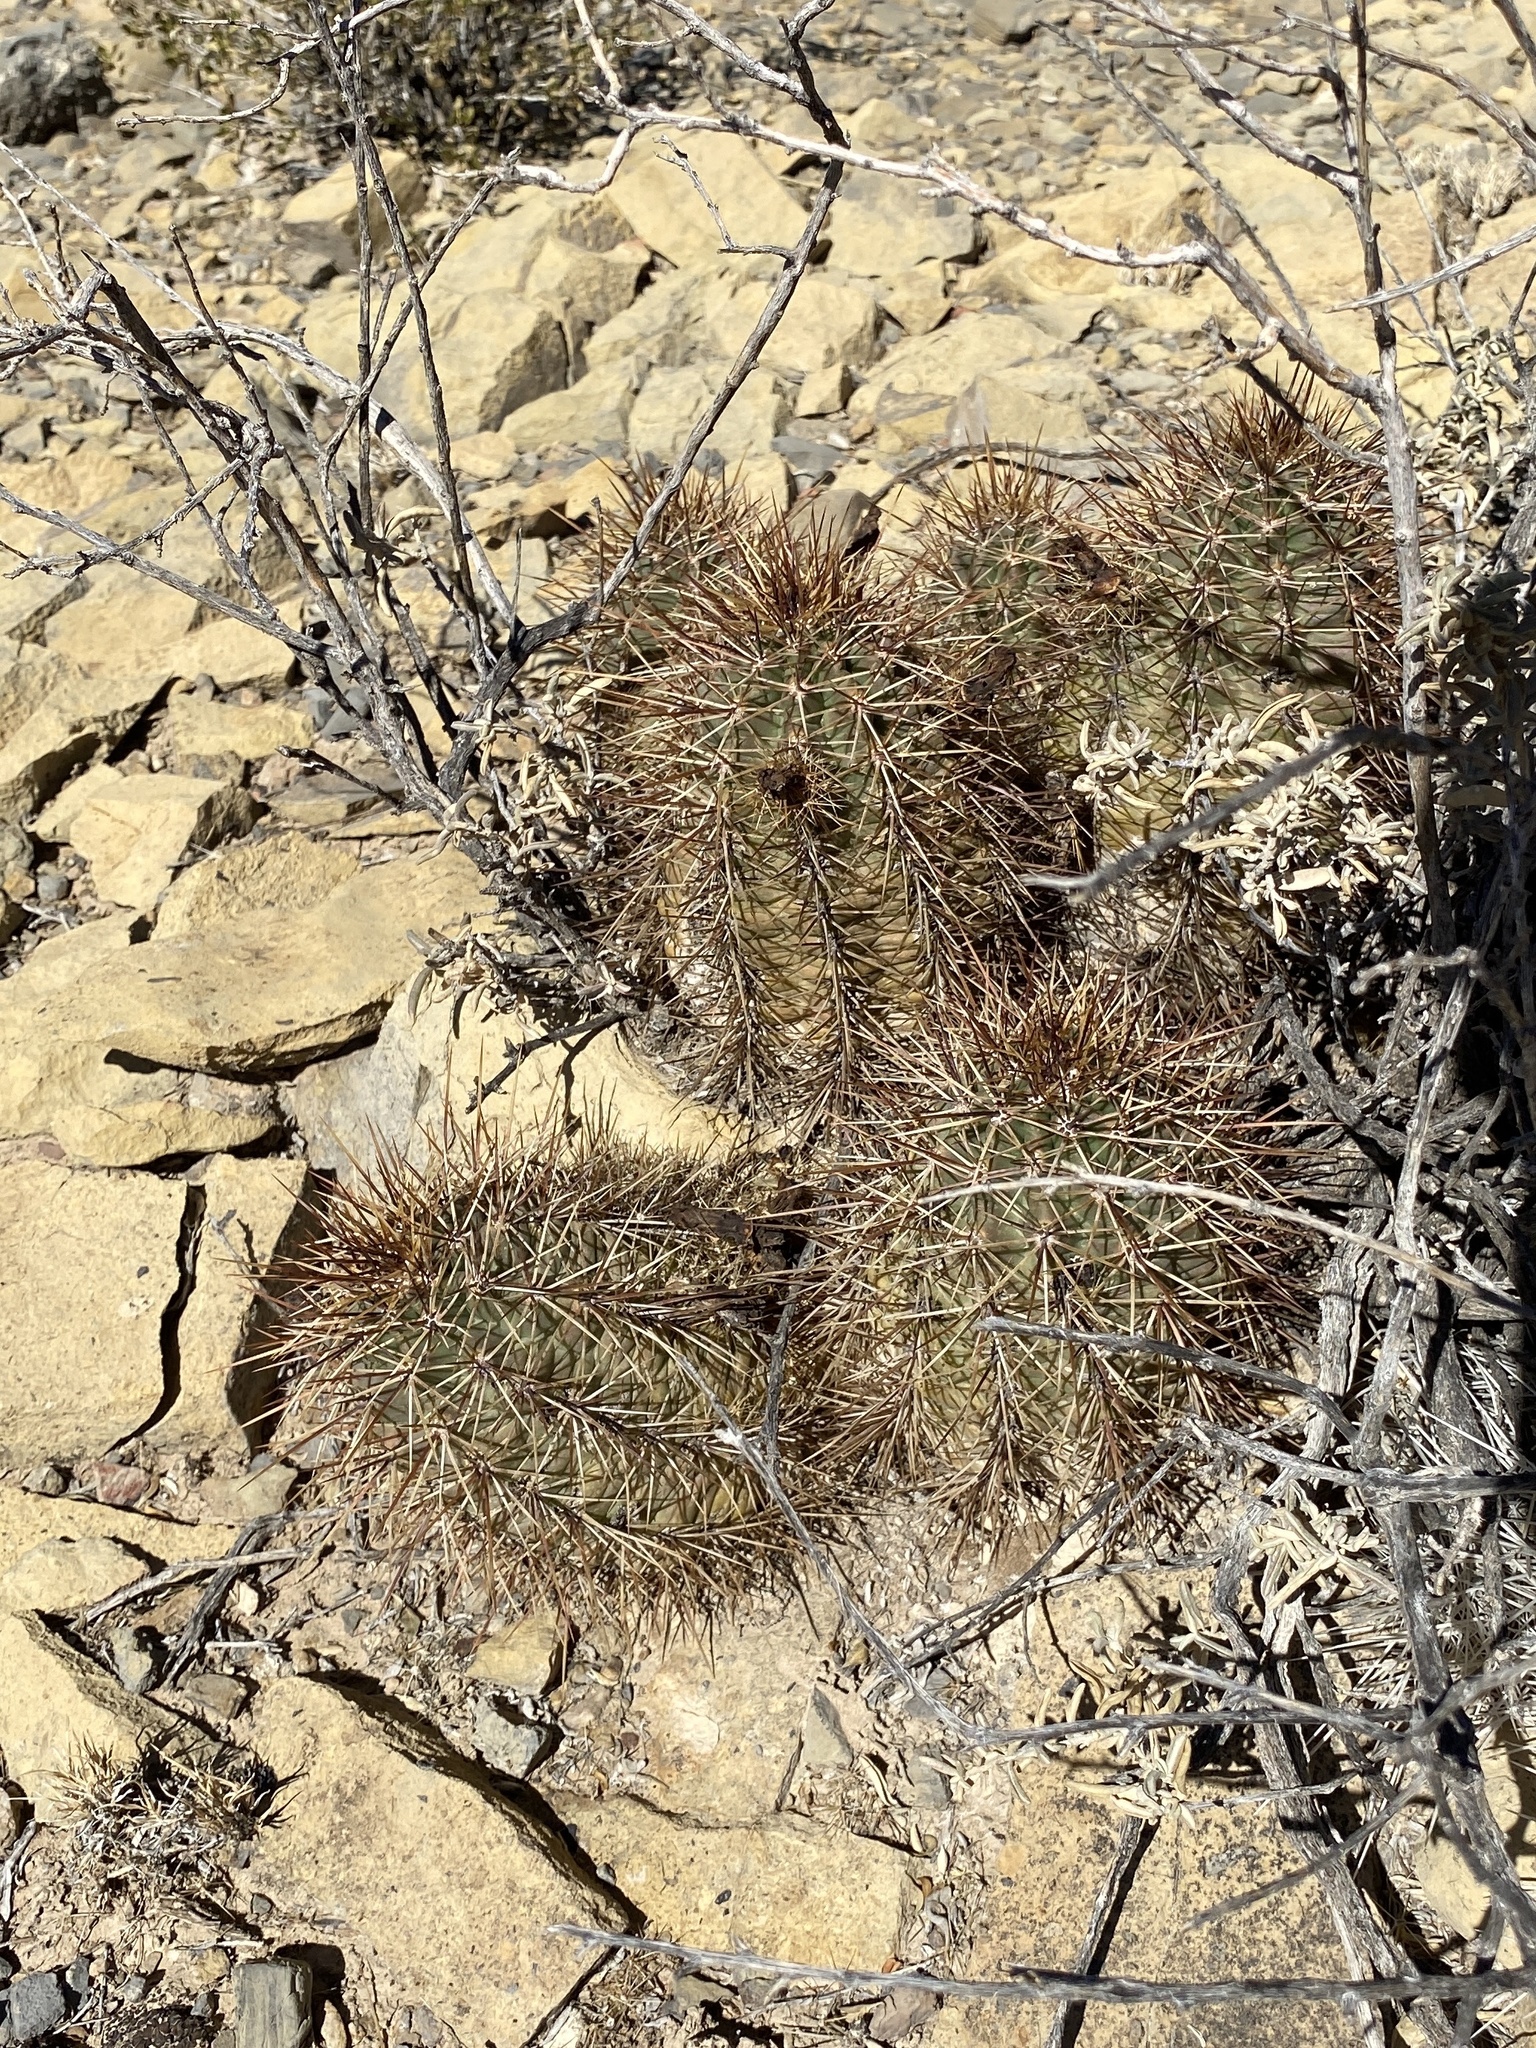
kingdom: Plantae
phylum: Tracheophyta
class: Magnoliopsida
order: Caryophyllales
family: Cactaceae
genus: Echinocereus
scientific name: Echinocereus coccineus
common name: Scarlet hedgehog cactus
